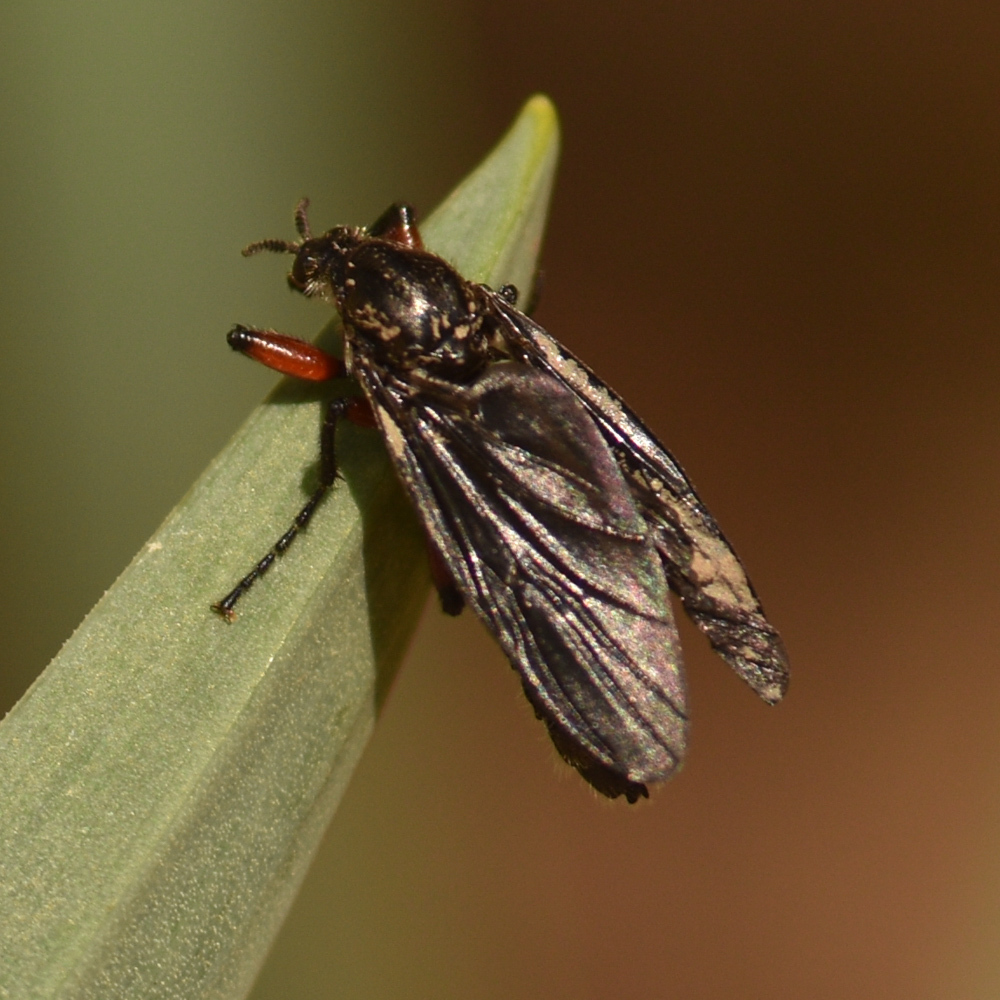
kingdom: Animalia
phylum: Arthropoda
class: Insecta
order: Diptera
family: Bibionidae
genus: Bibio
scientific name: Bibio femoratus
